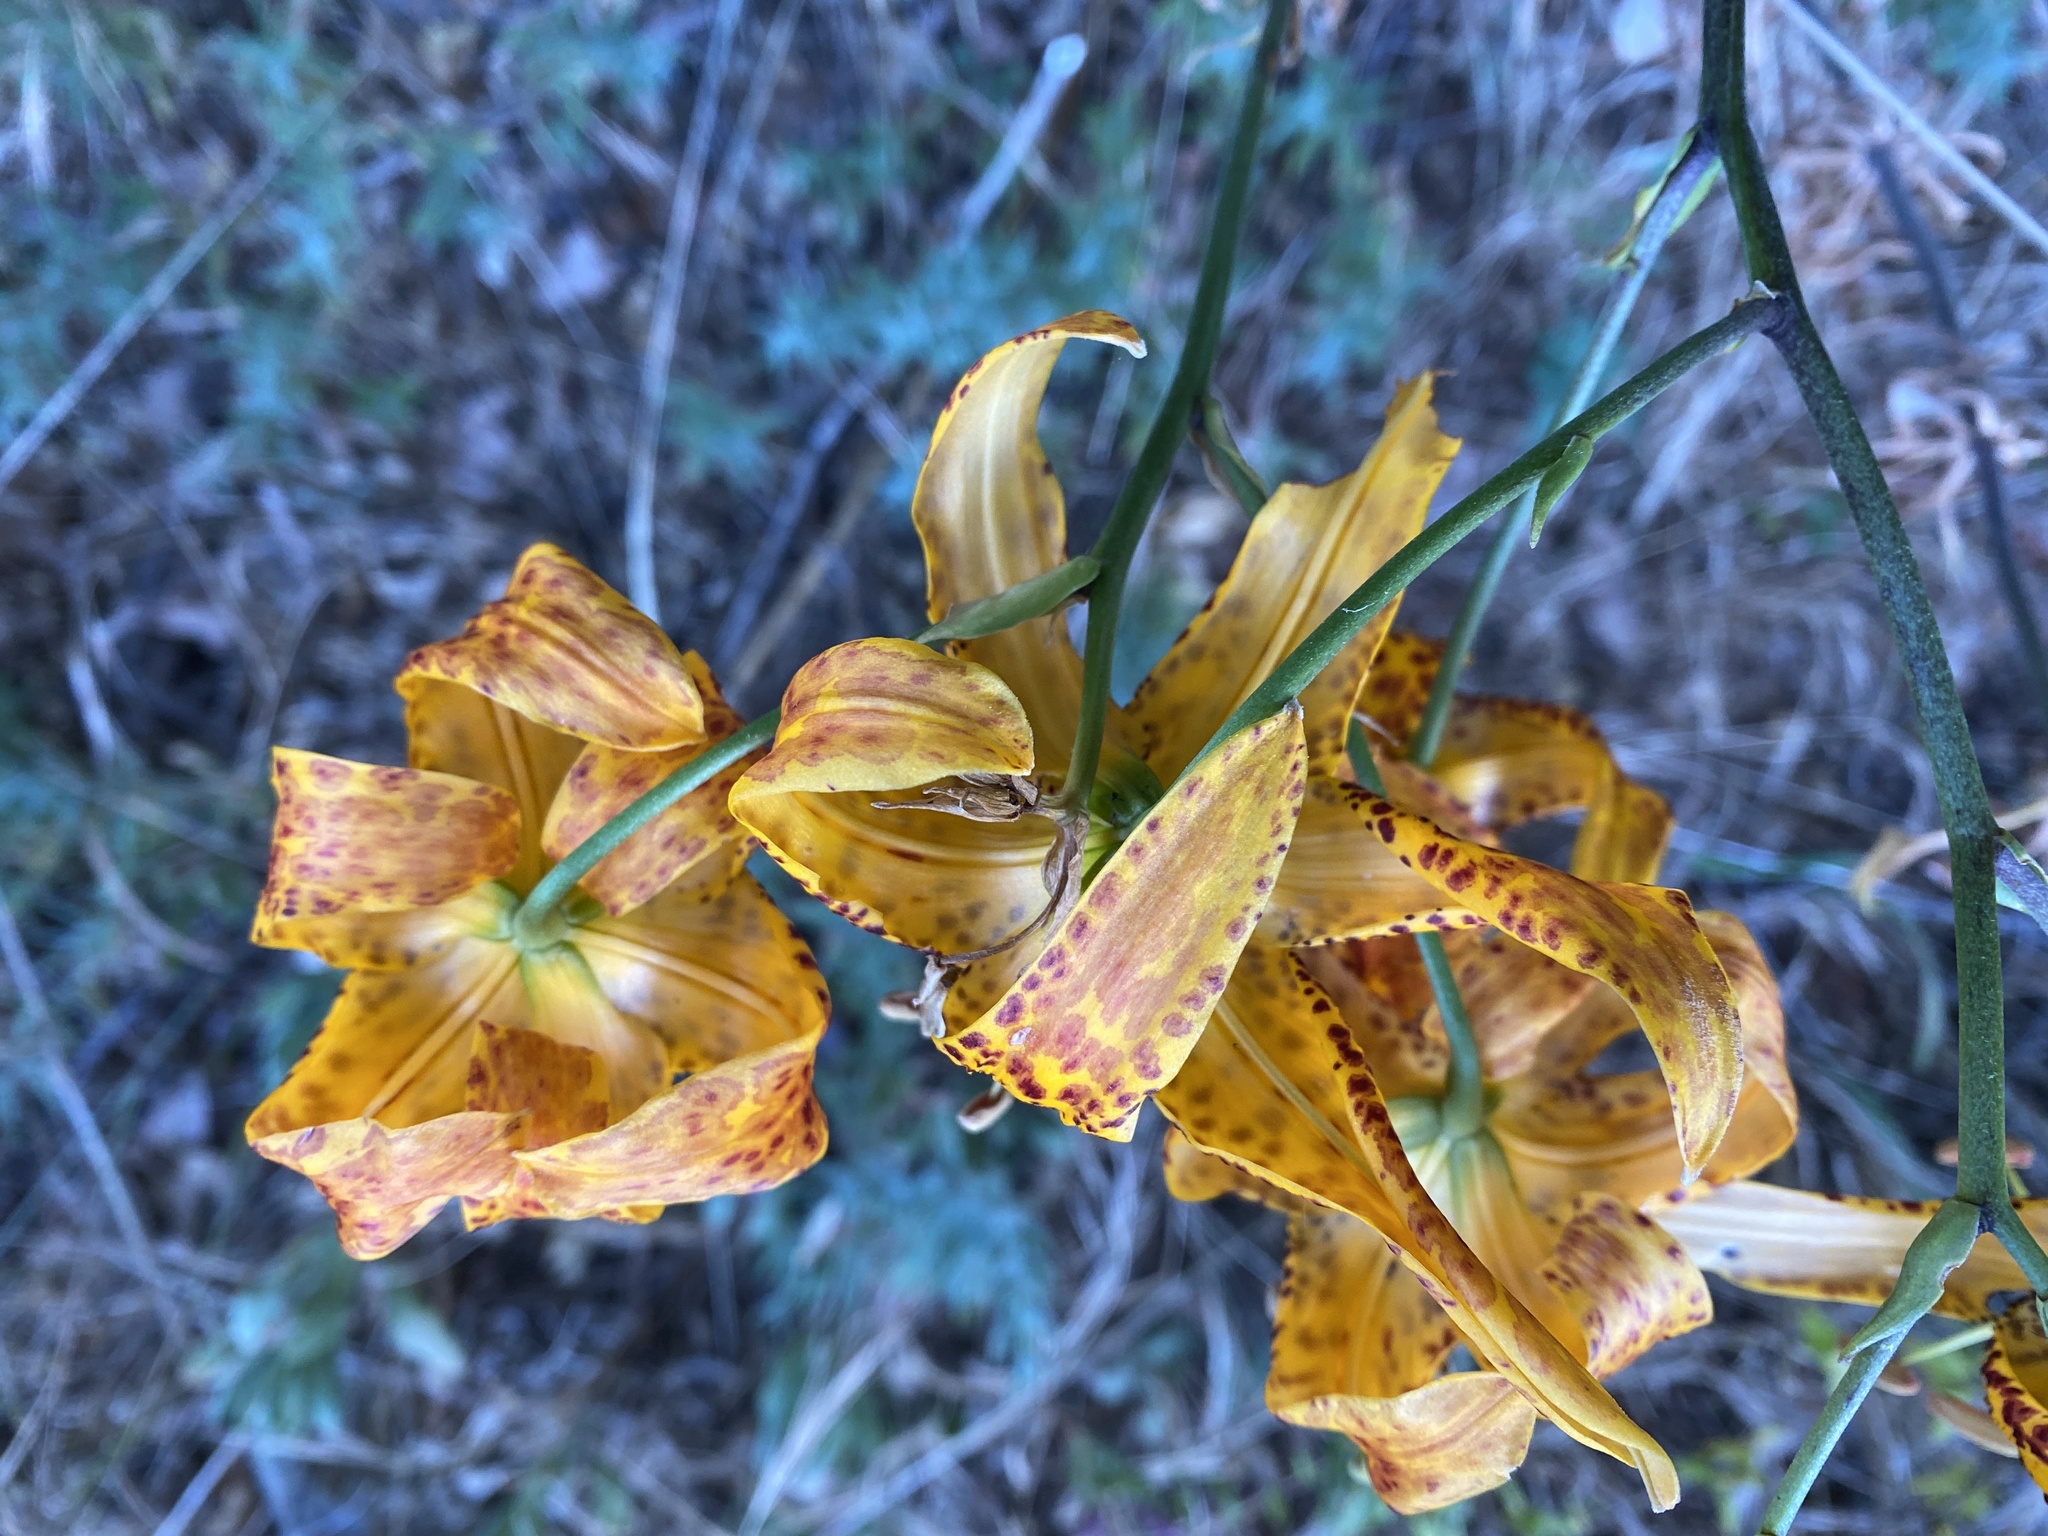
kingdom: Plantae
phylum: Tracheophyta
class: Liliopsida
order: Liliales
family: Liliaceae
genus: Lilium
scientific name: Lilium humboldtii
